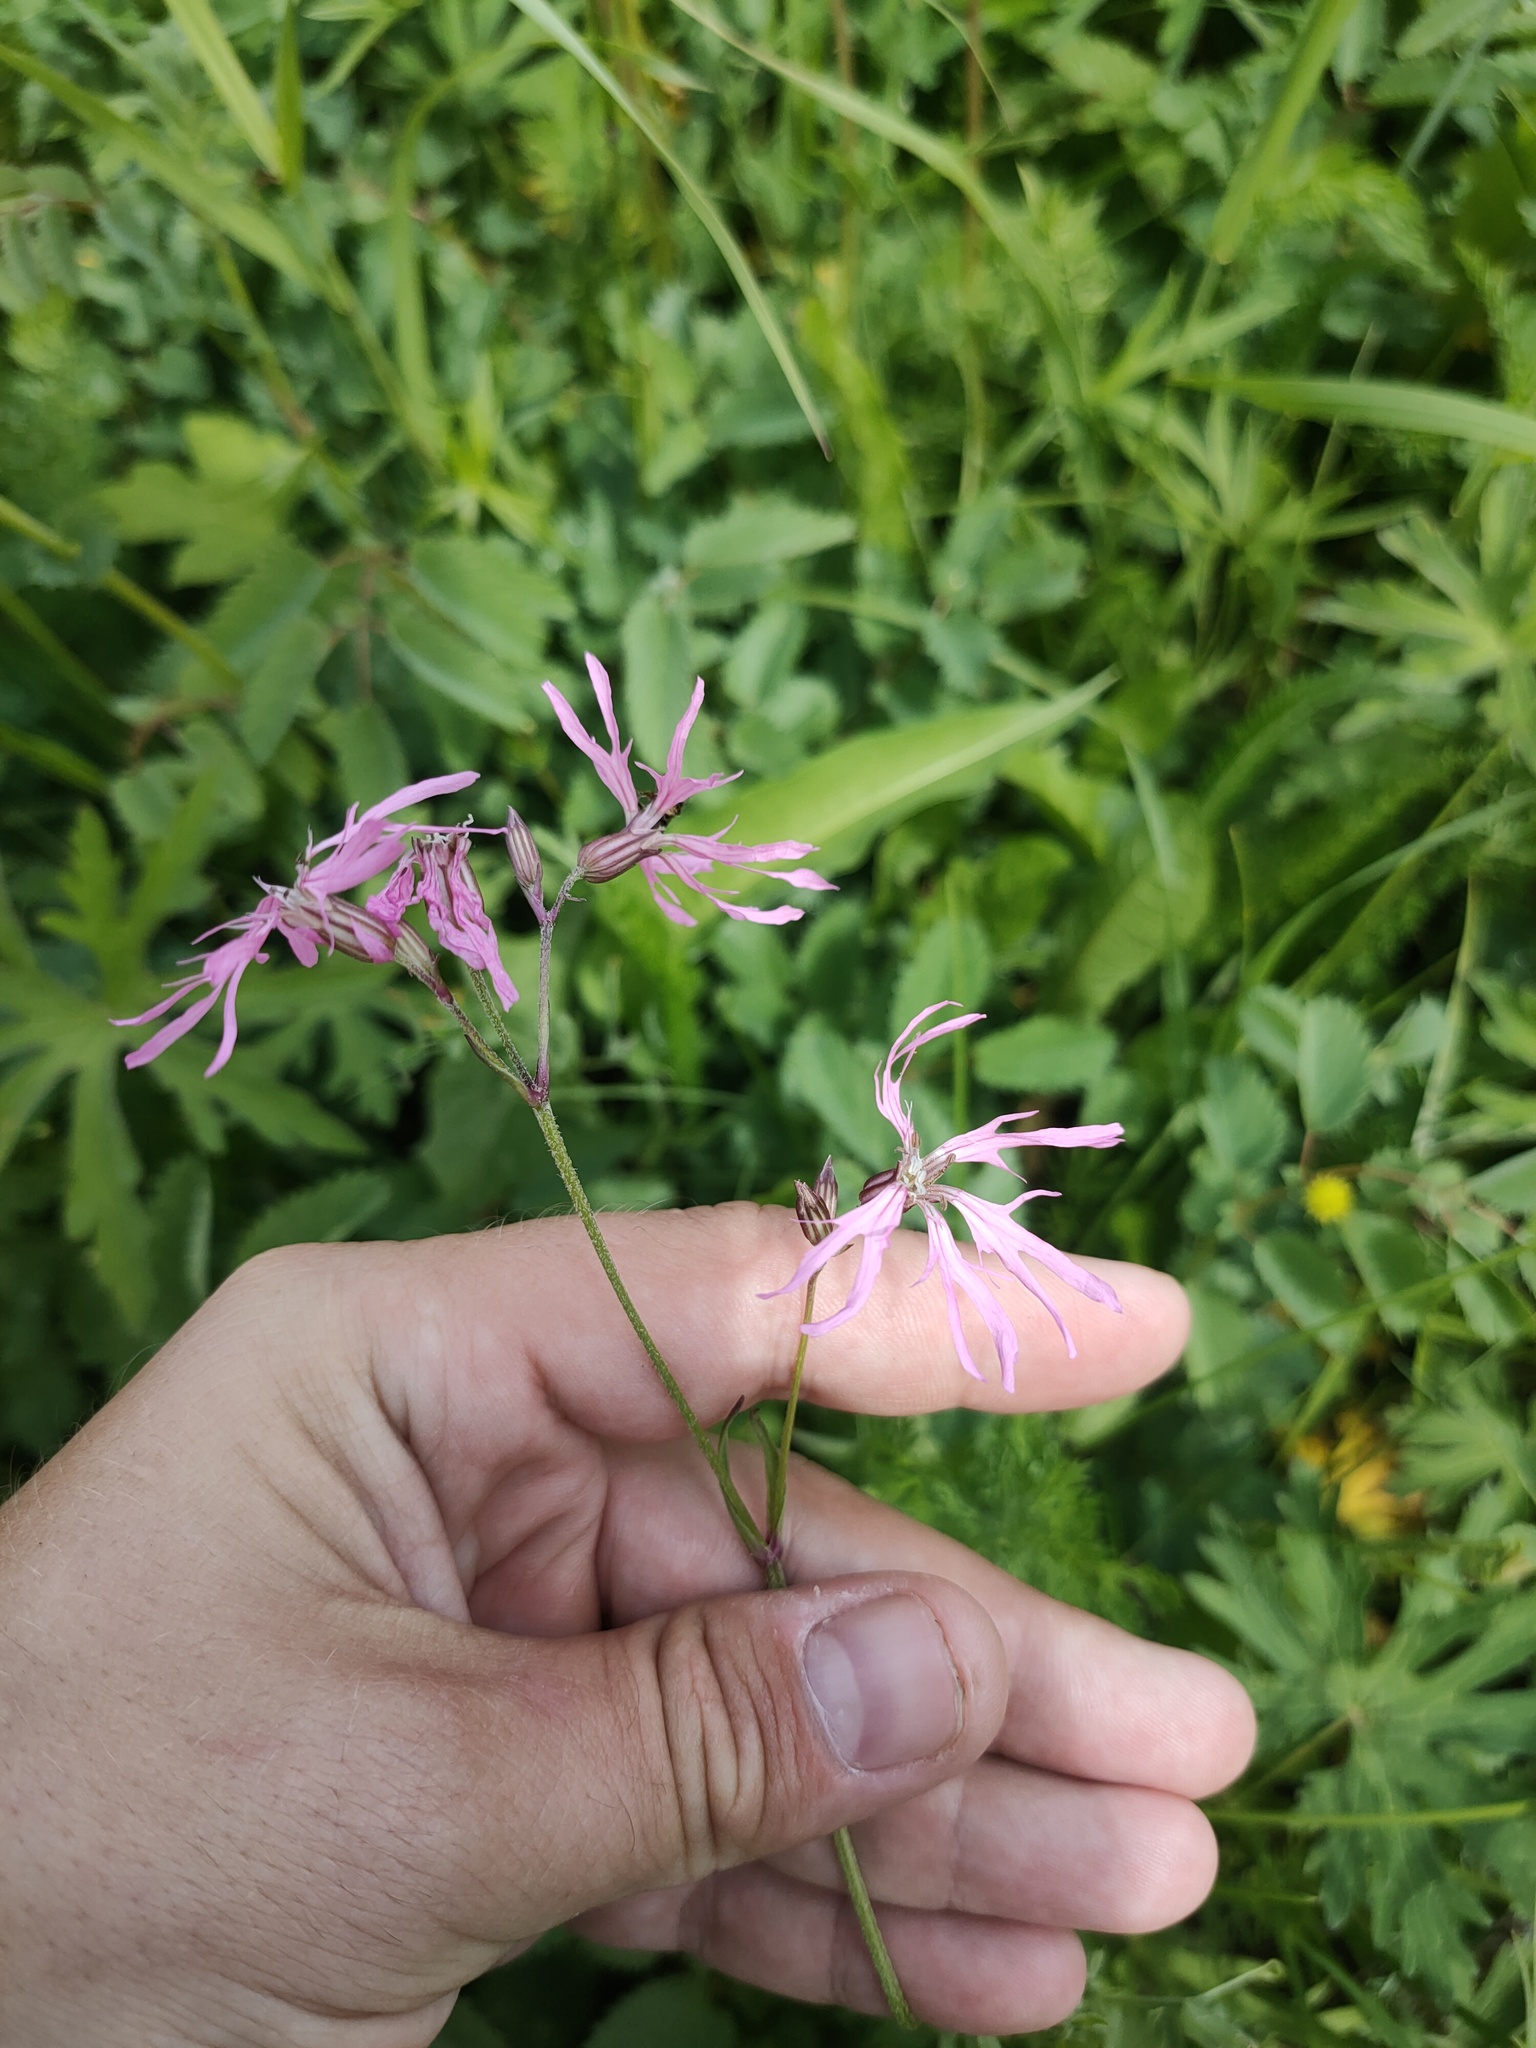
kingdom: Plantae
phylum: Tracheophyta
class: Magnoliopsida
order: Caryophyllales
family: Caryophyllaceae
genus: Silene
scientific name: Silene flos-cuculi
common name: Ragged-robin
